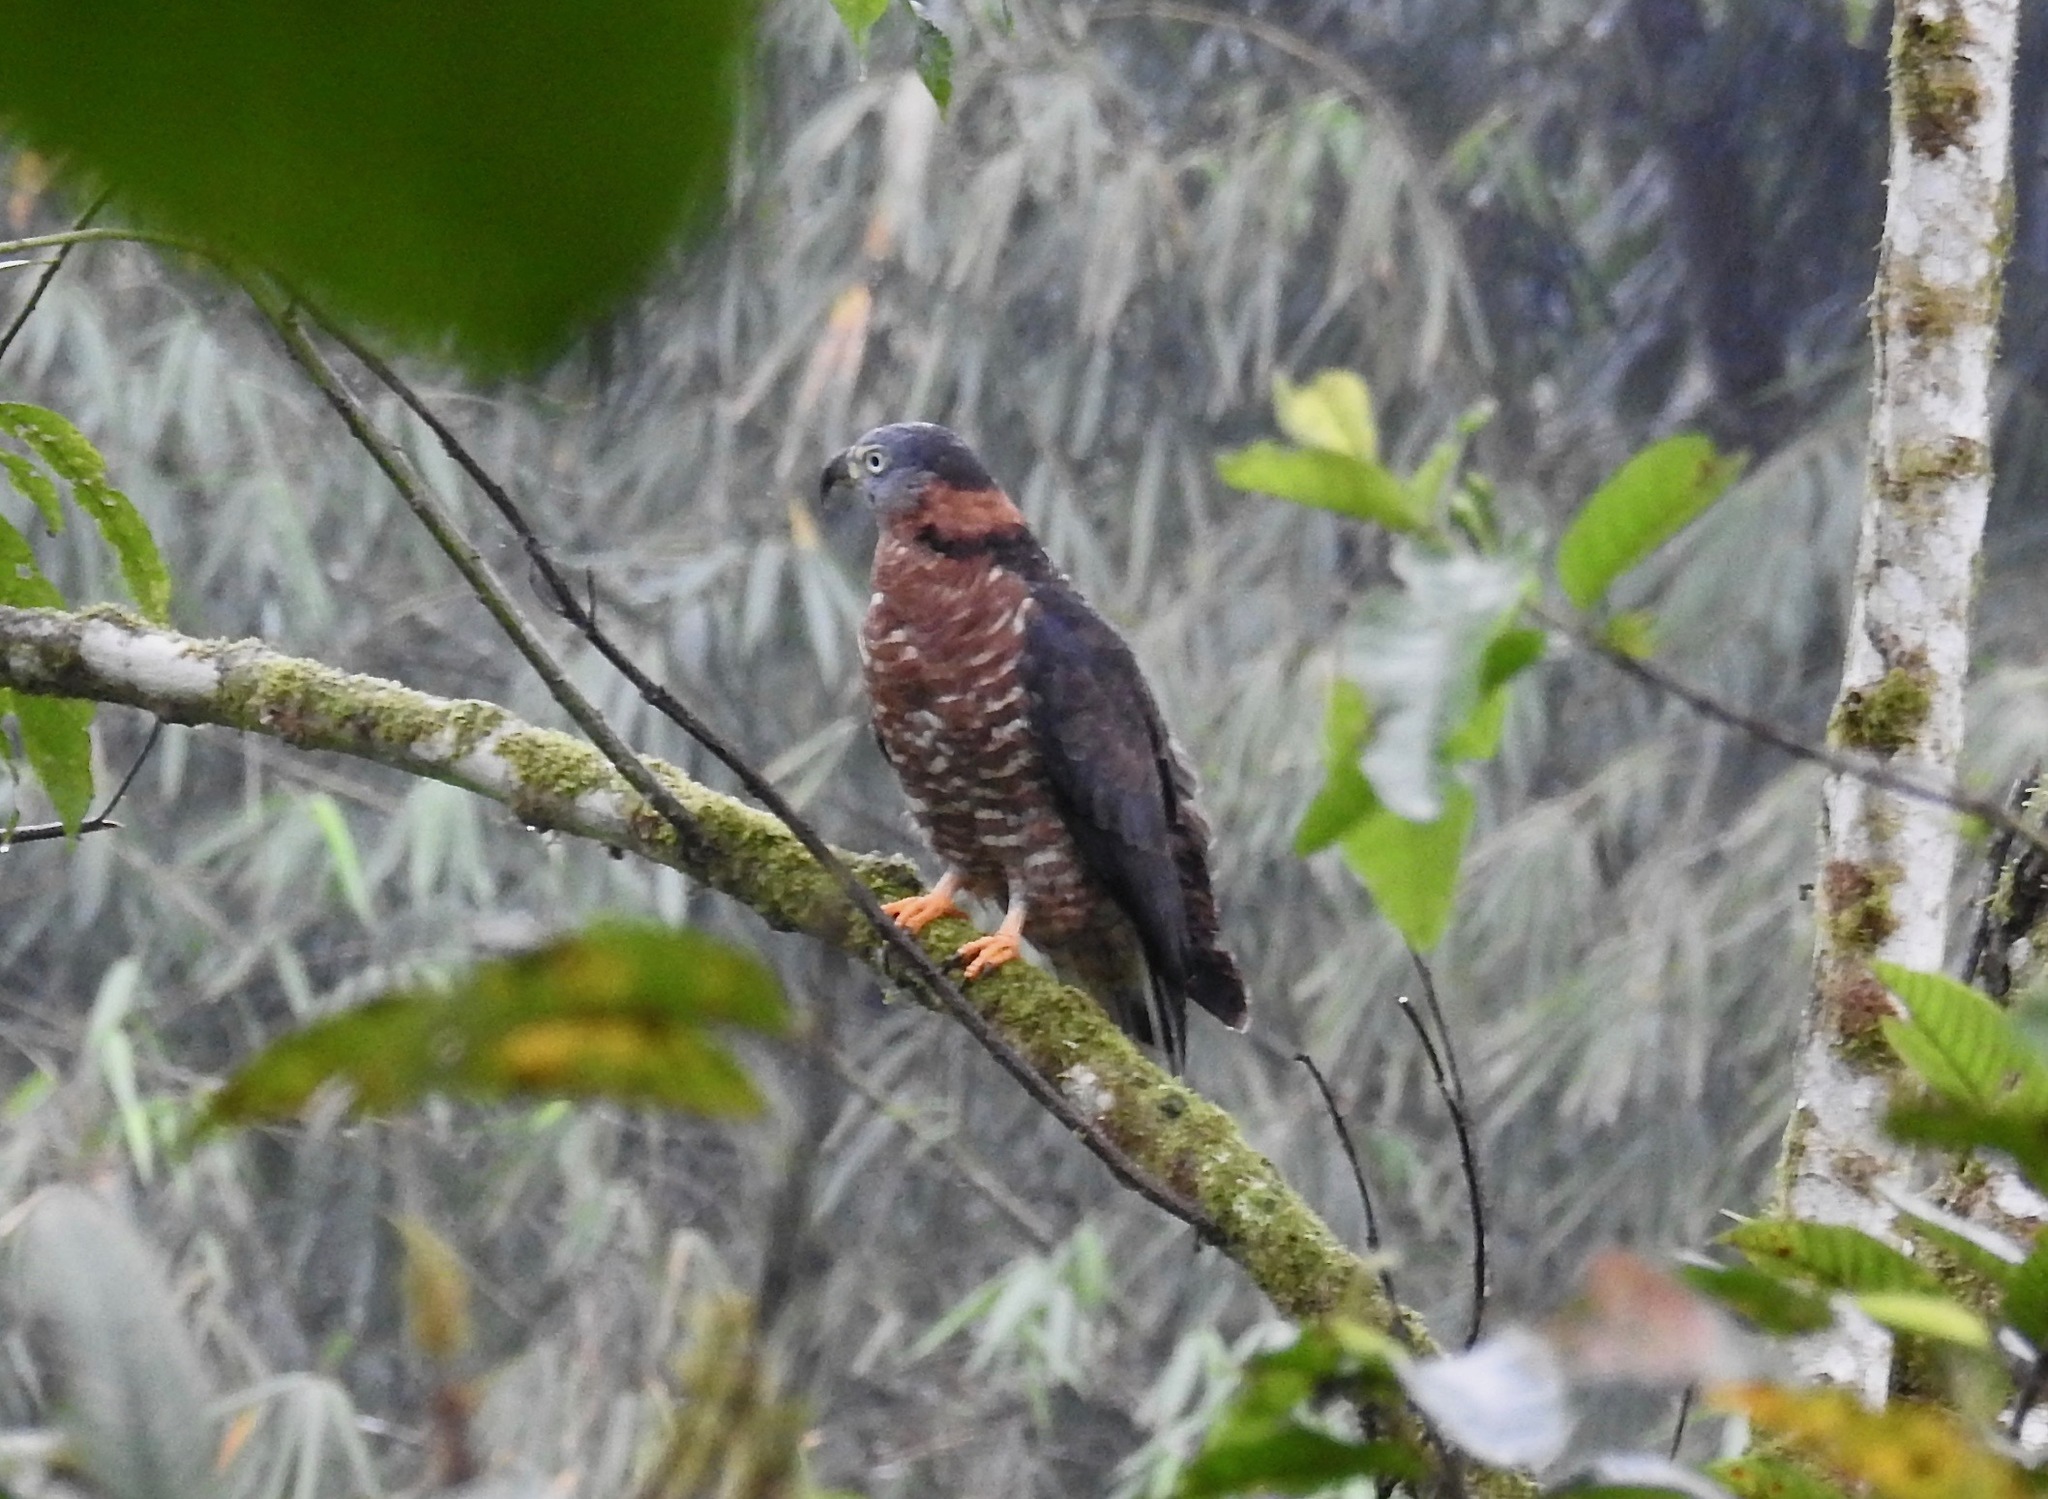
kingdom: Animalia
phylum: Chordata
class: Aves
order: Accipitriformes
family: Accipitridae
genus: Chondrohierax
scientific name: Chondrohierax uncinatus
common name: Hook-billed kite
